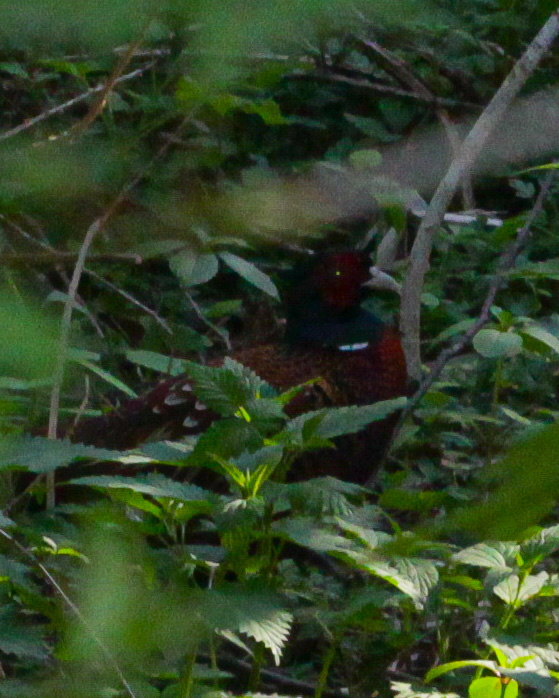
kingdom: Animalia
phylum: Chordata
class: Aves
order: Galliformes
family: Phasianidae
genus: Phasianus
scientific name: Phasianus colchicus
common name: Common pheasant
